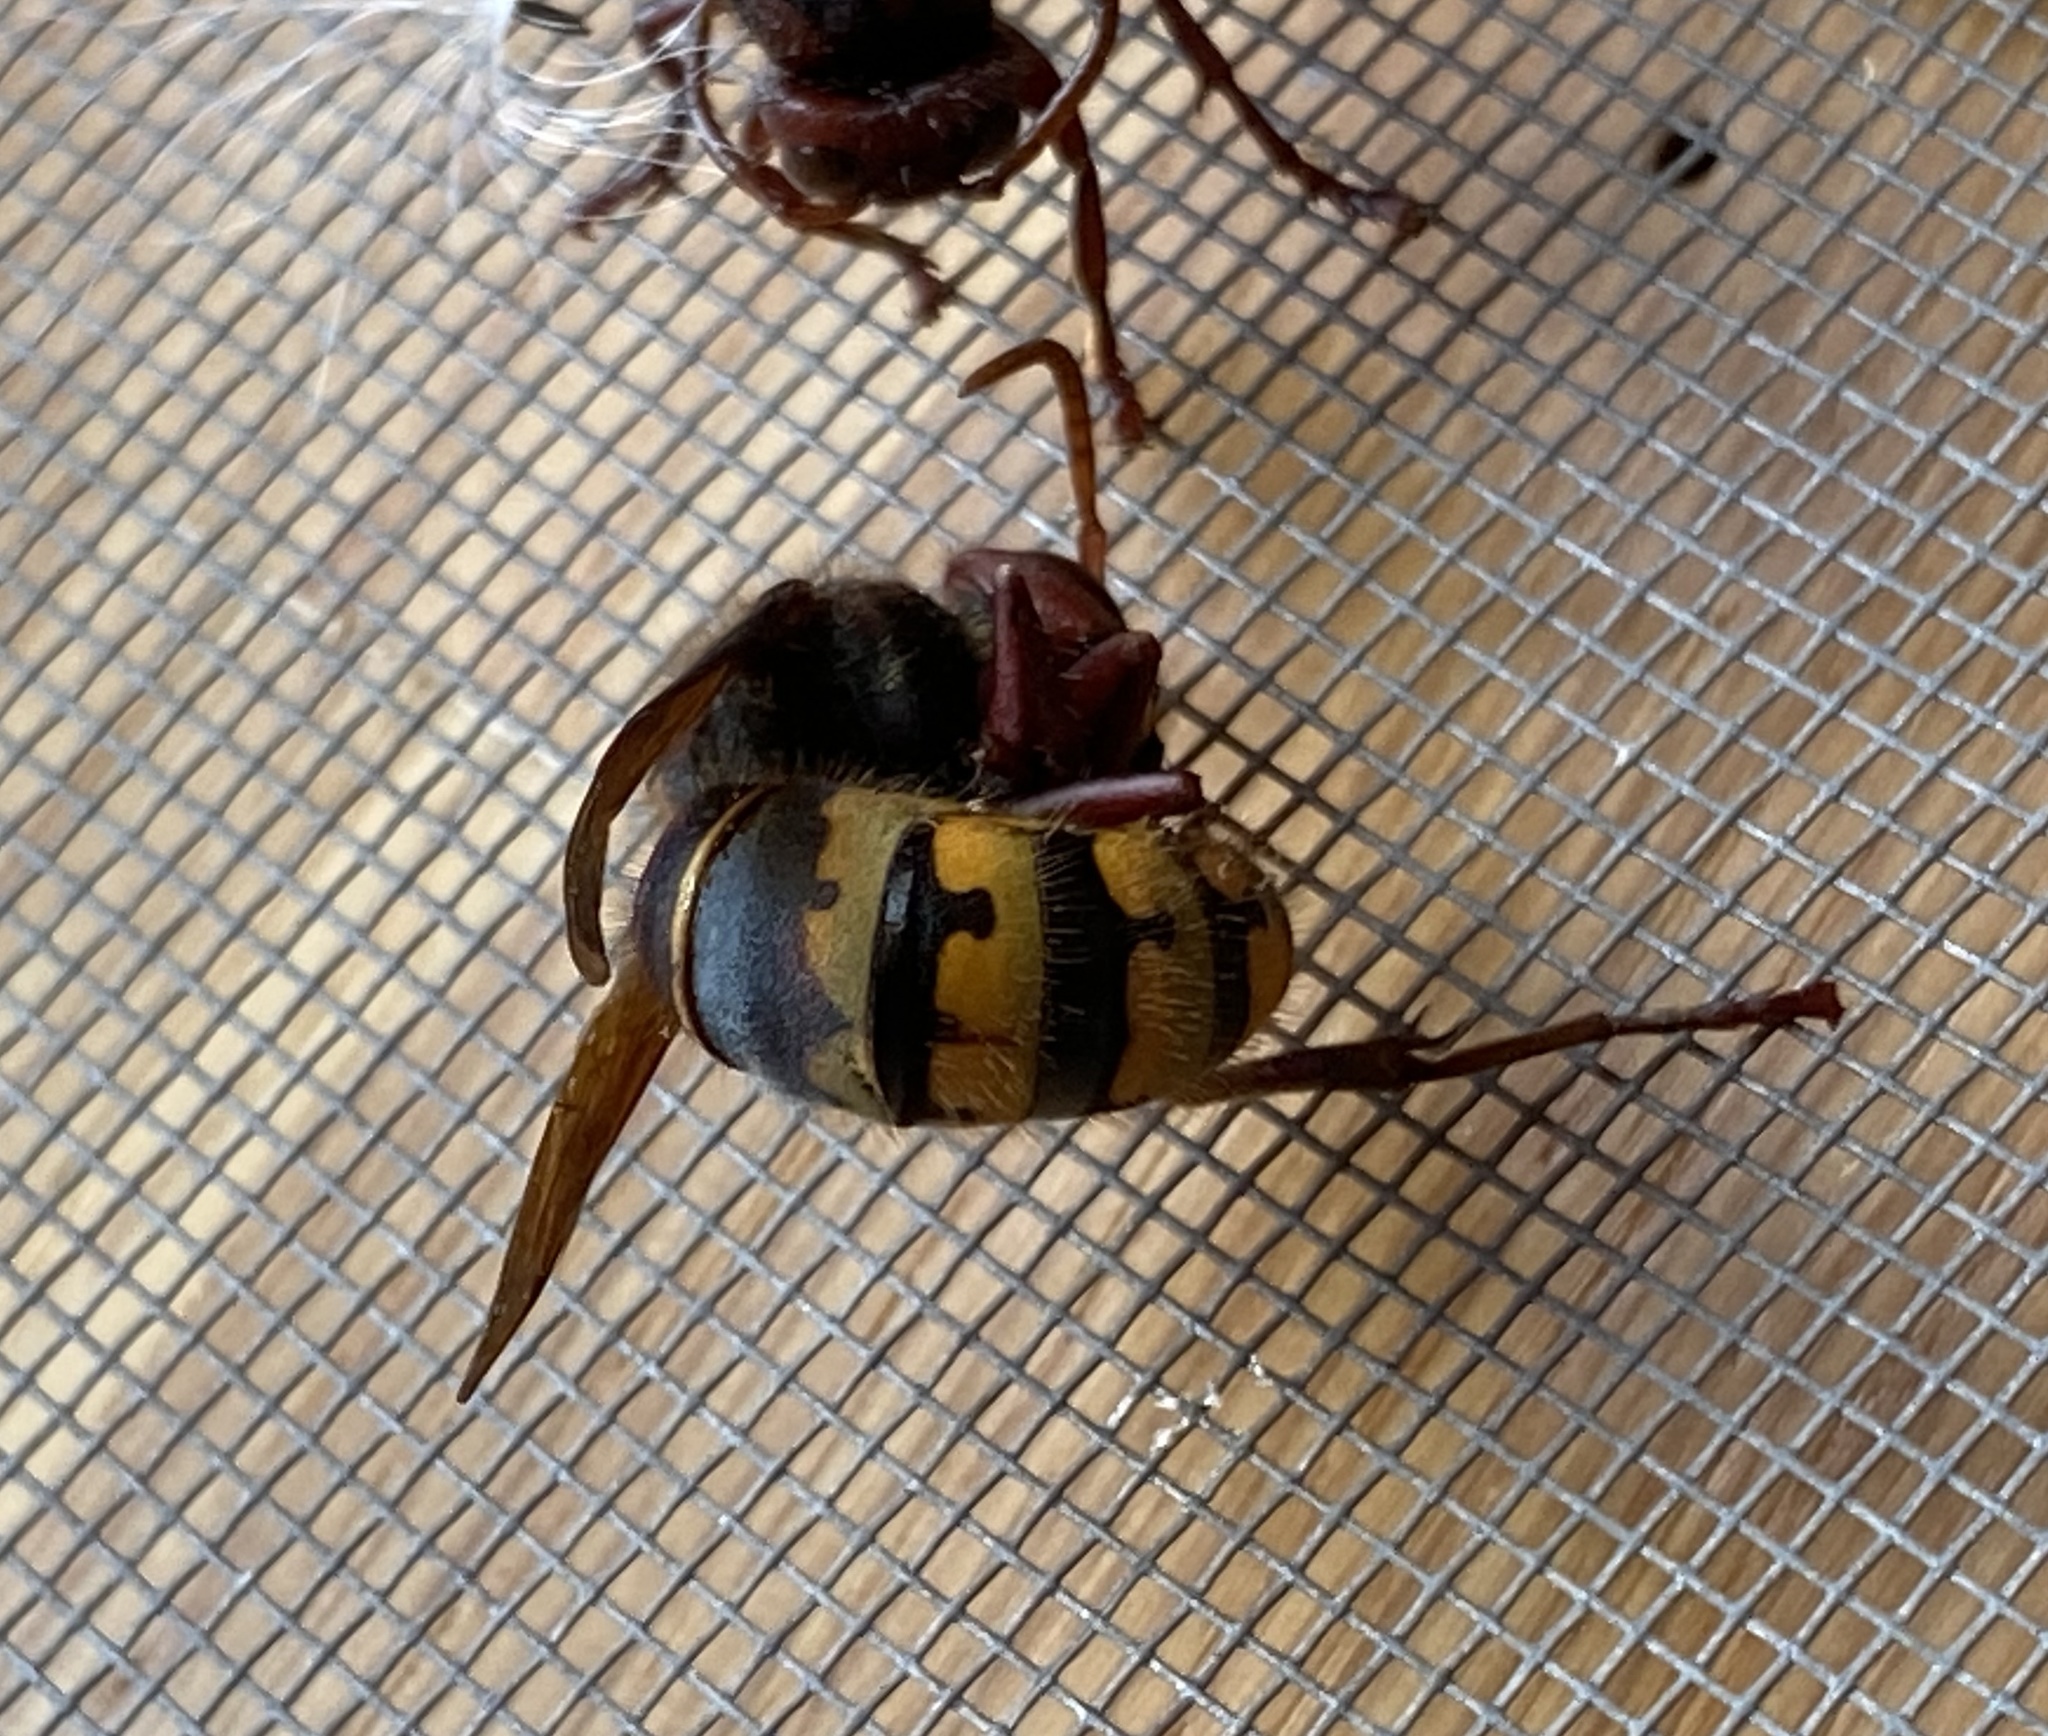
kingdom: Animalia
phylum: Arthropoda
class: Insecta
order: Hymenoptera
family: Vespidae
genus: Vespa
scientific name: Vespa crabro
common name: Hornet
